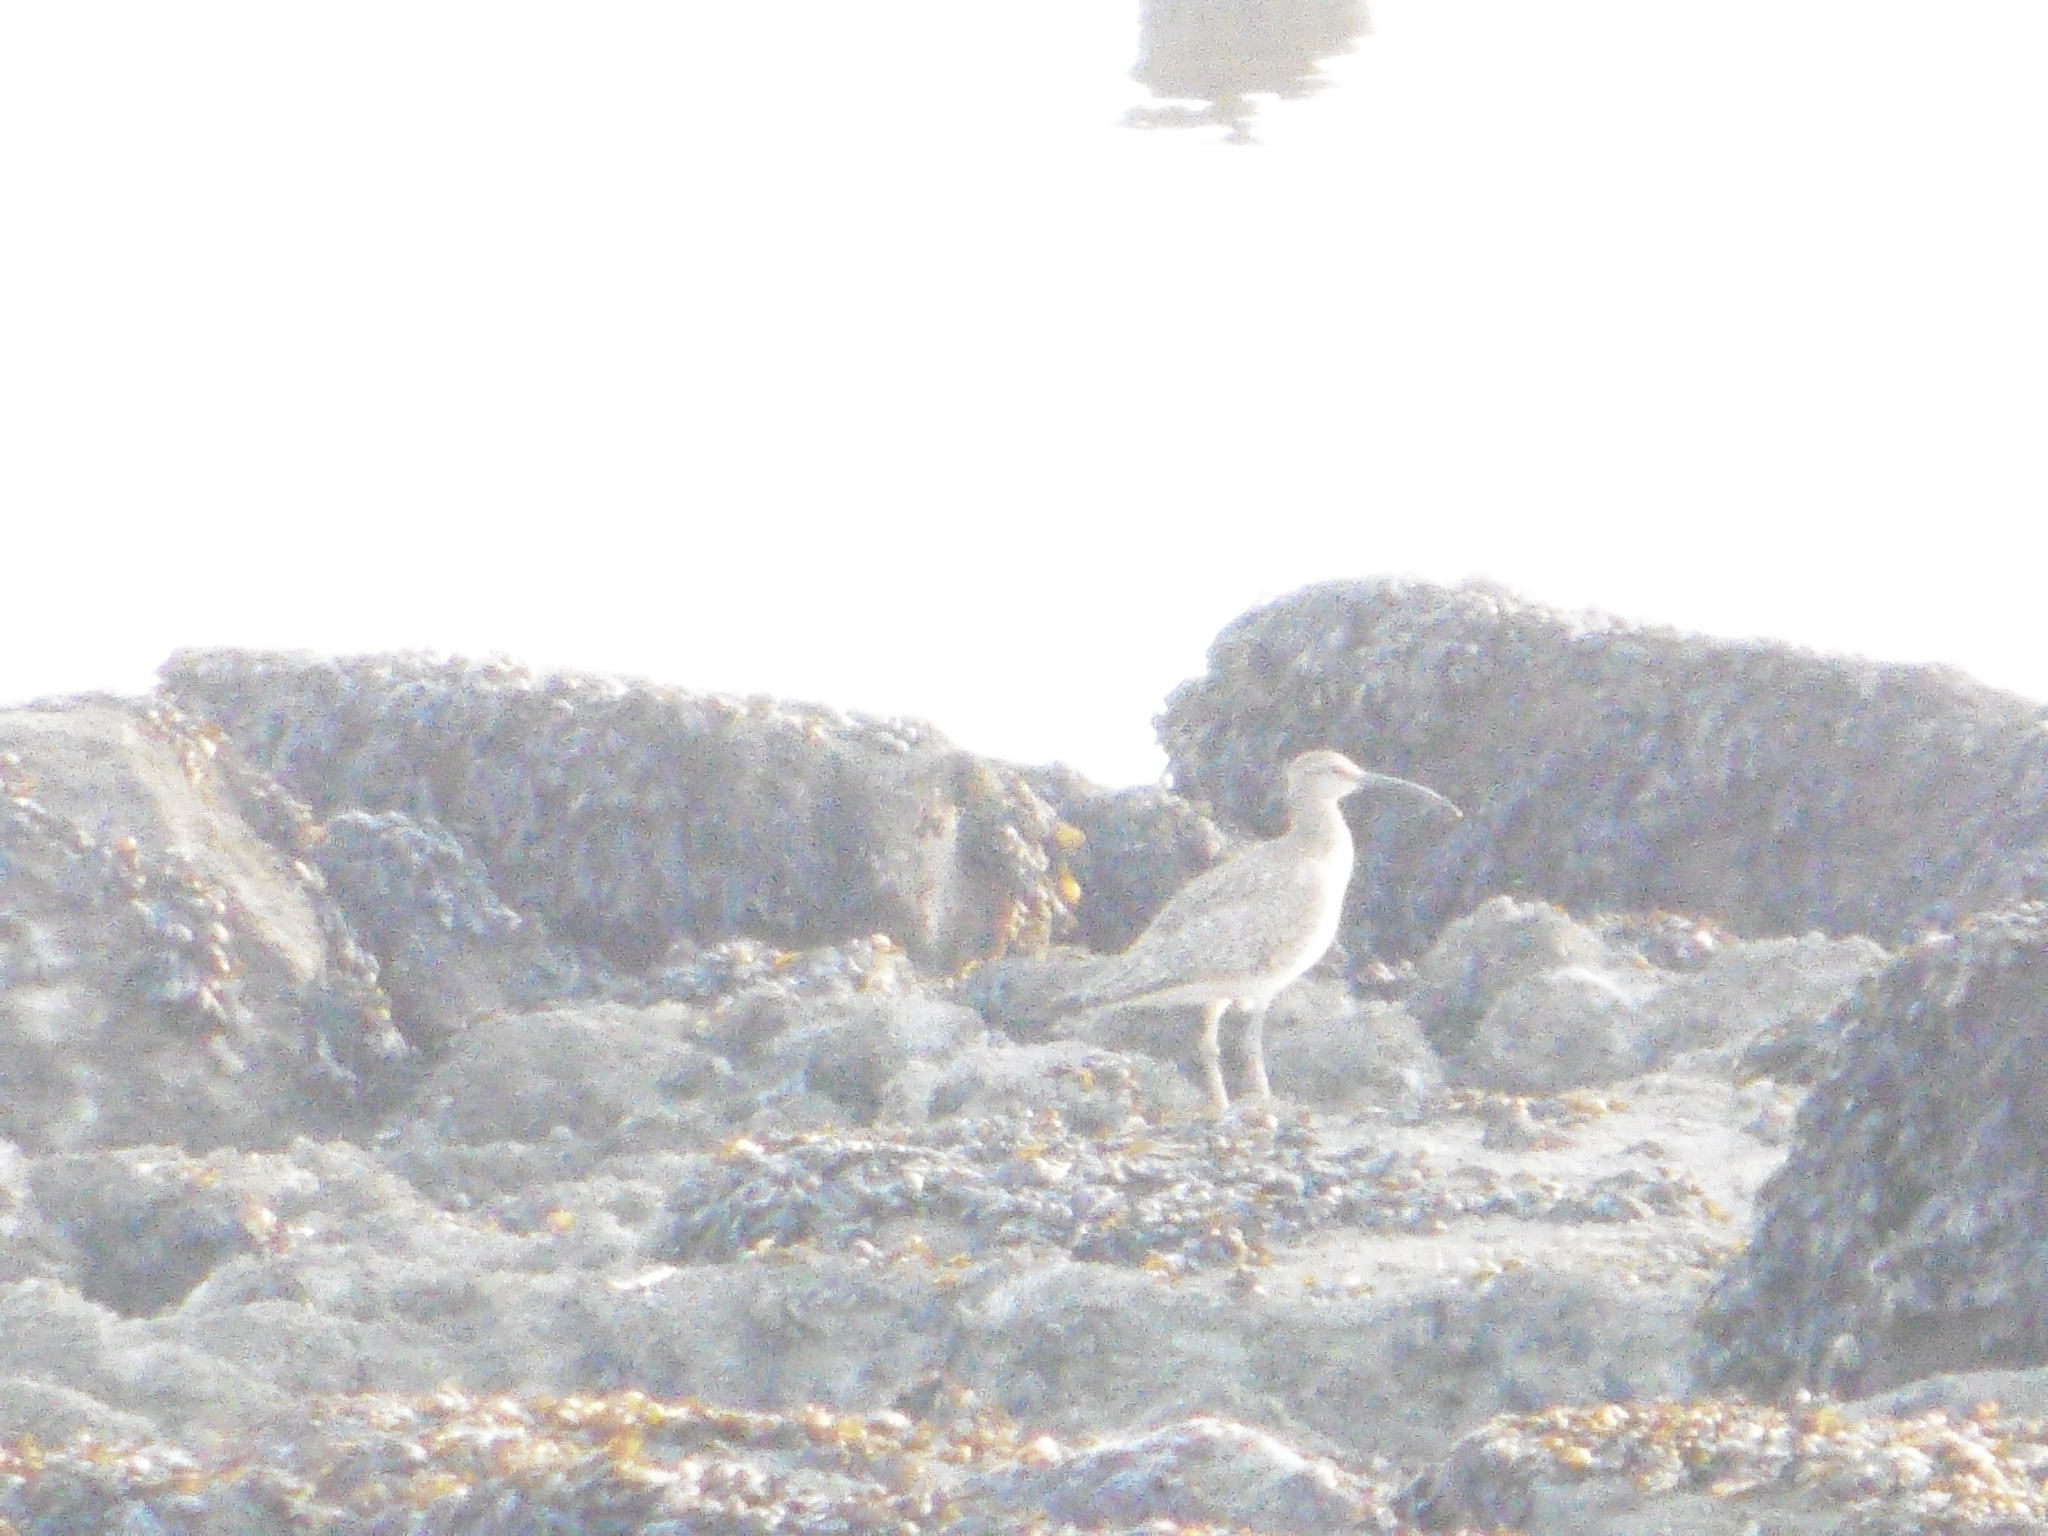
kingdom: Animalia
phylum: Chordata
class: Aves
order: Charadriiformes
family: Scolopacidae
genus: Numenius
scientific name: Numenius phaeopus
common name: Whimbrel
